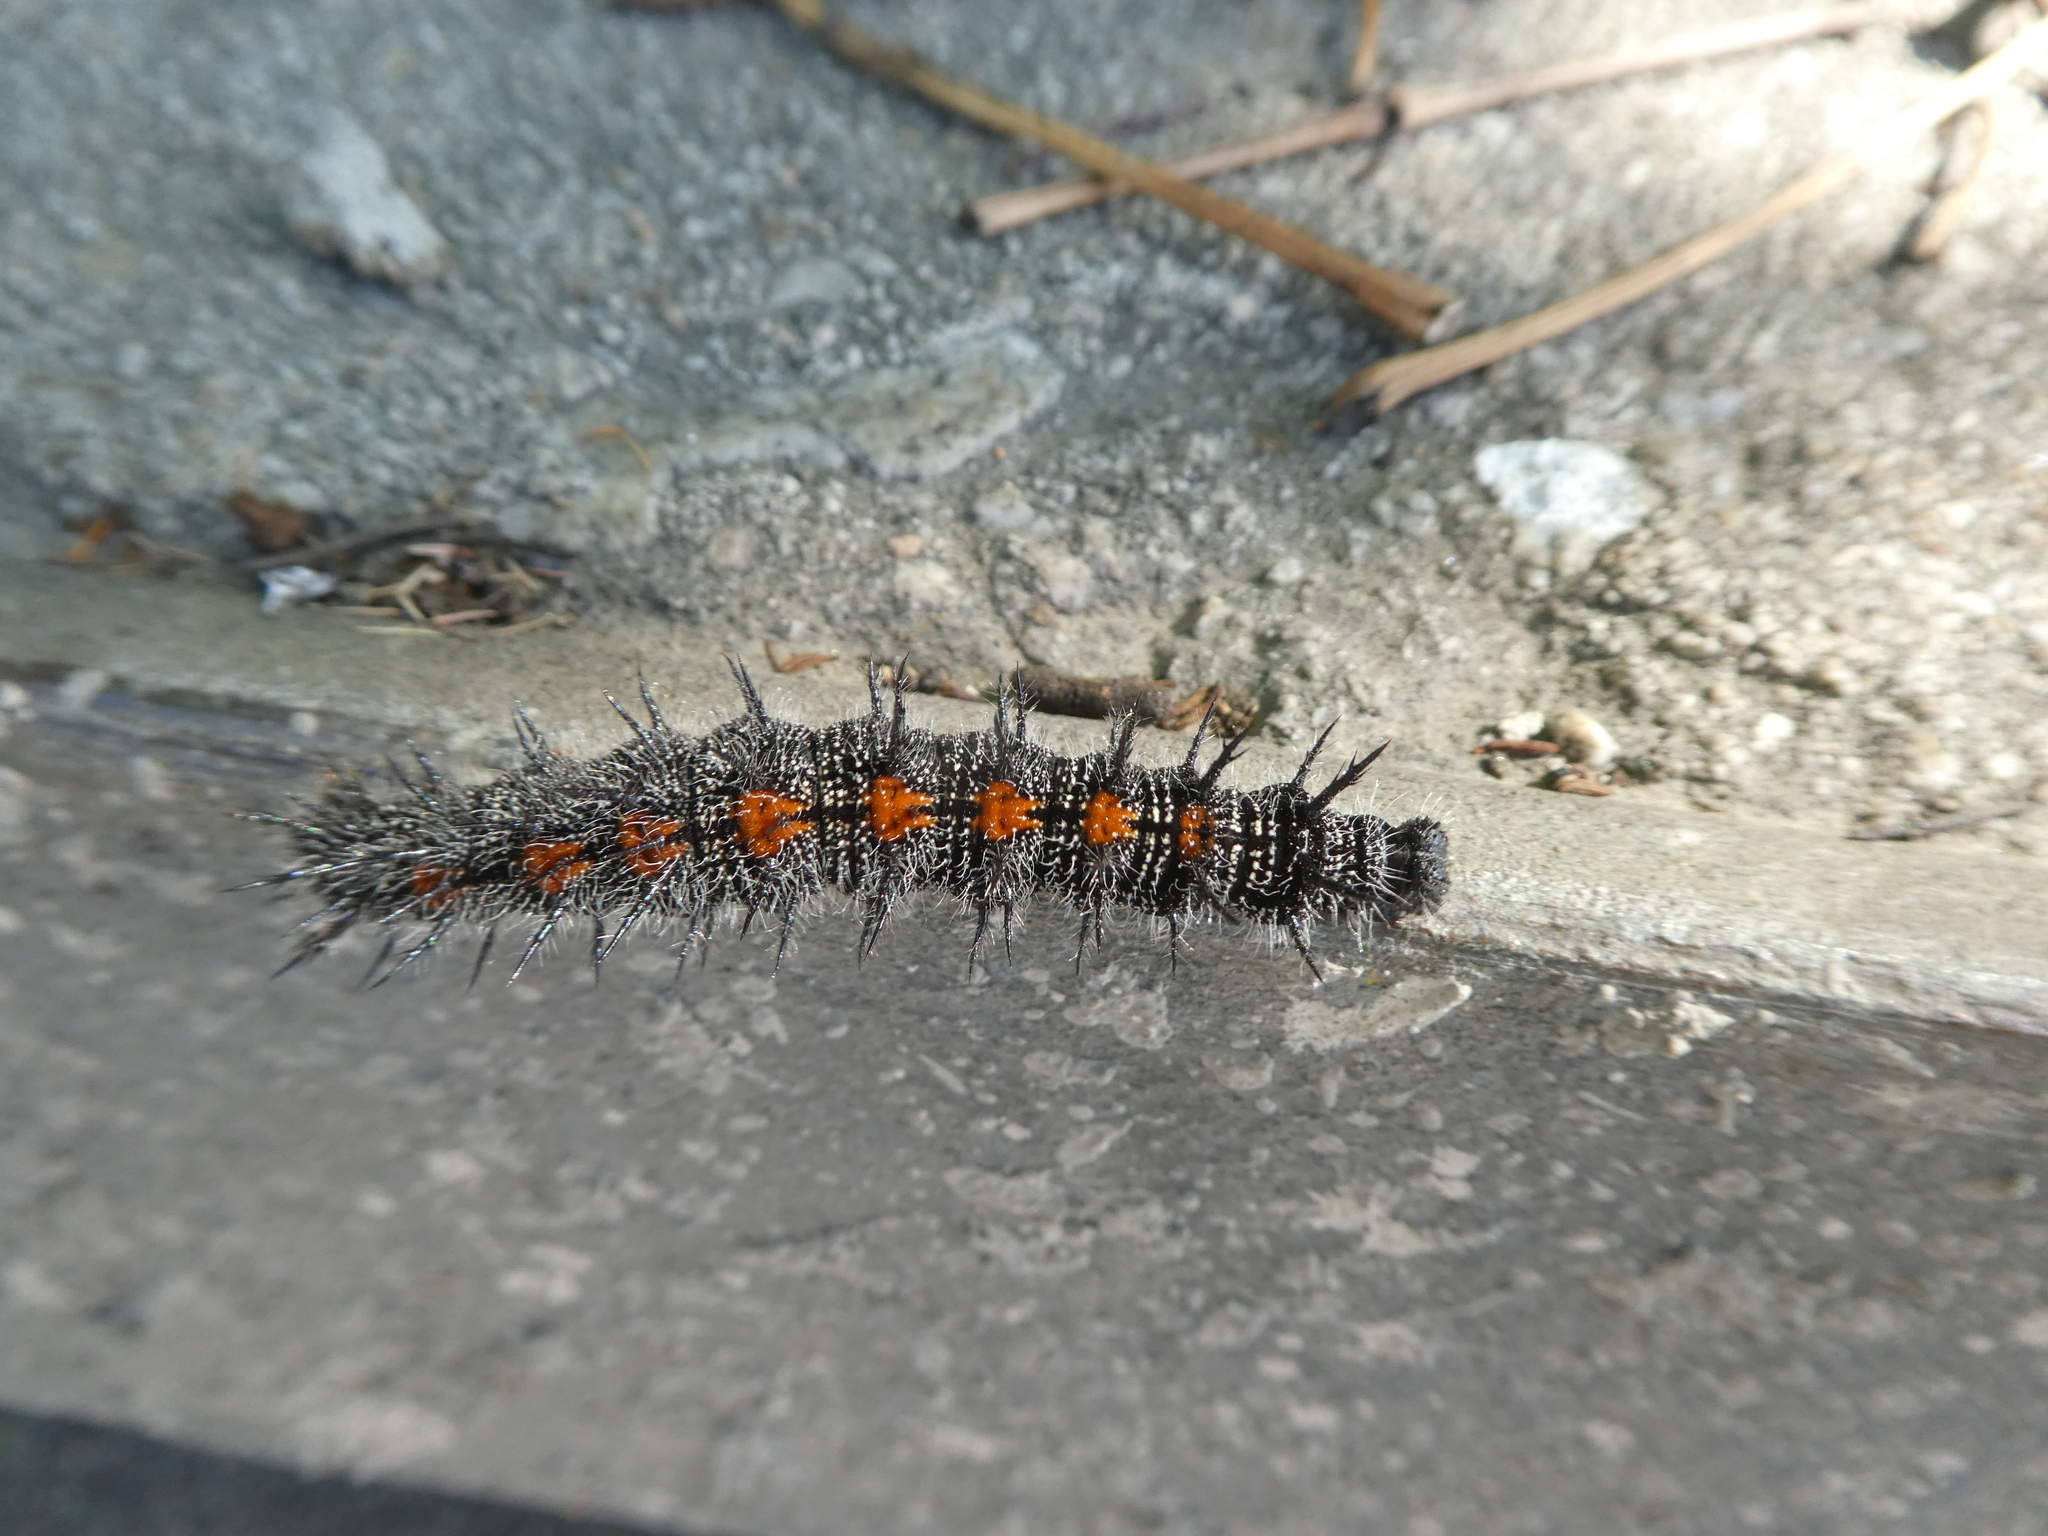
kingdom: Animalia
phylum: Arthropoda
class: Insecta
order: Lepidoptera
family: Nymphalidae
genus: Nymphalis
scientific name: Nymphalis antiopa
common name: Camberwell beauty
